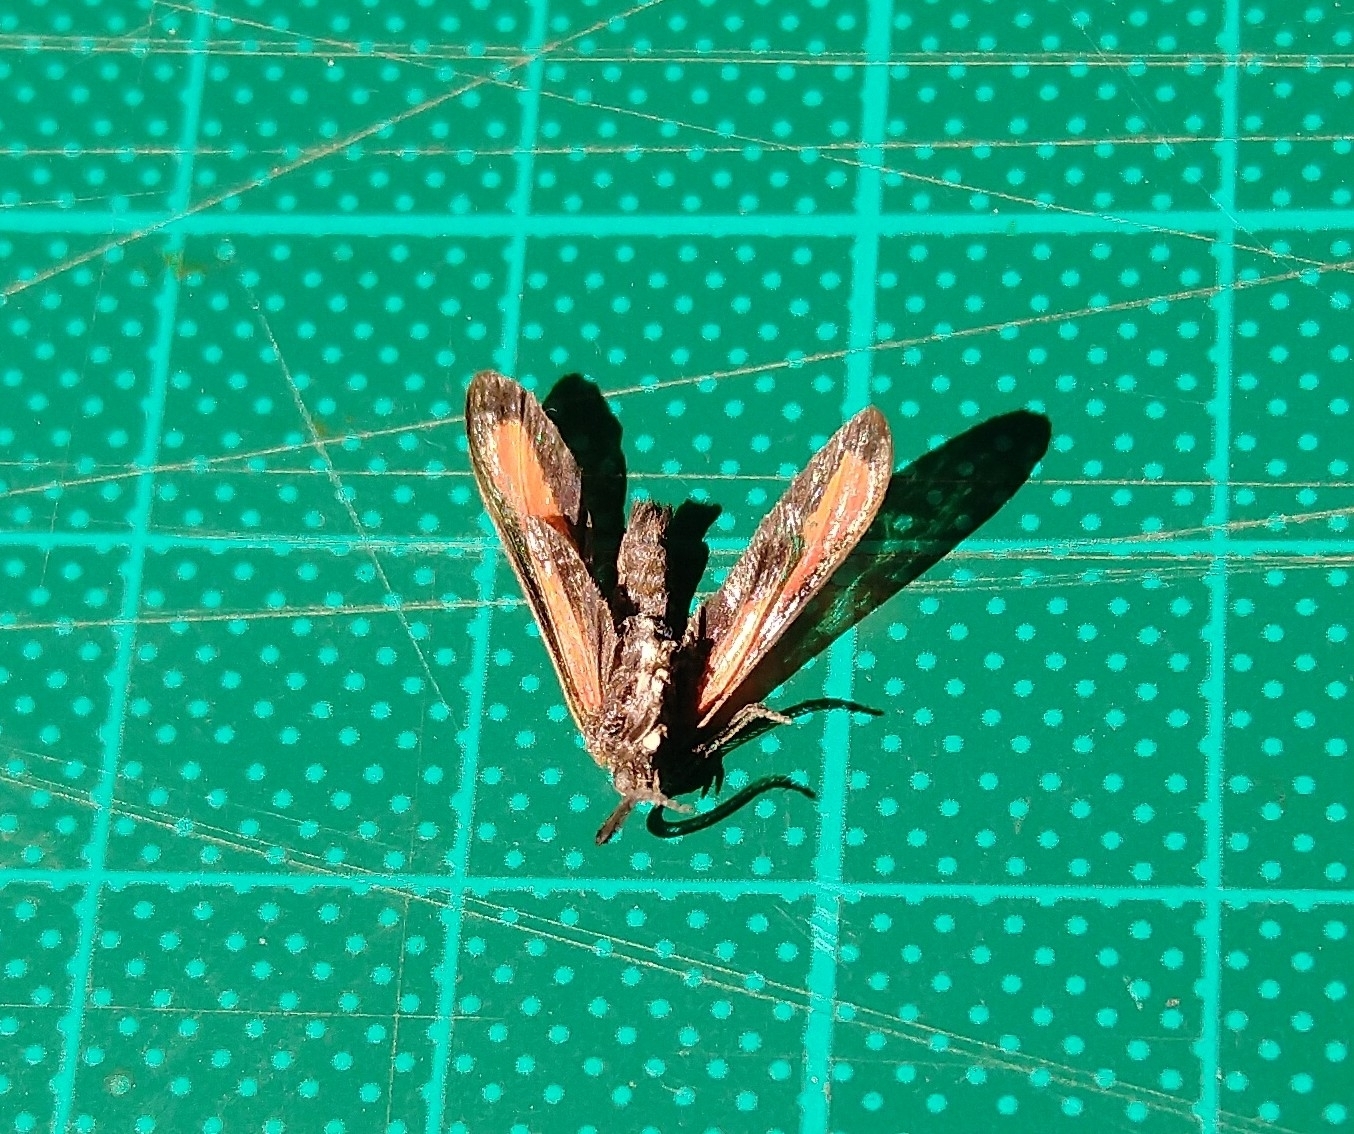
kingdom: Animalia
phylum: Arthropoda
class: Insecta
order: Lepidoptera
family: Erebidae
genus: Tipulodes
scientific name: Tipulodes ima
